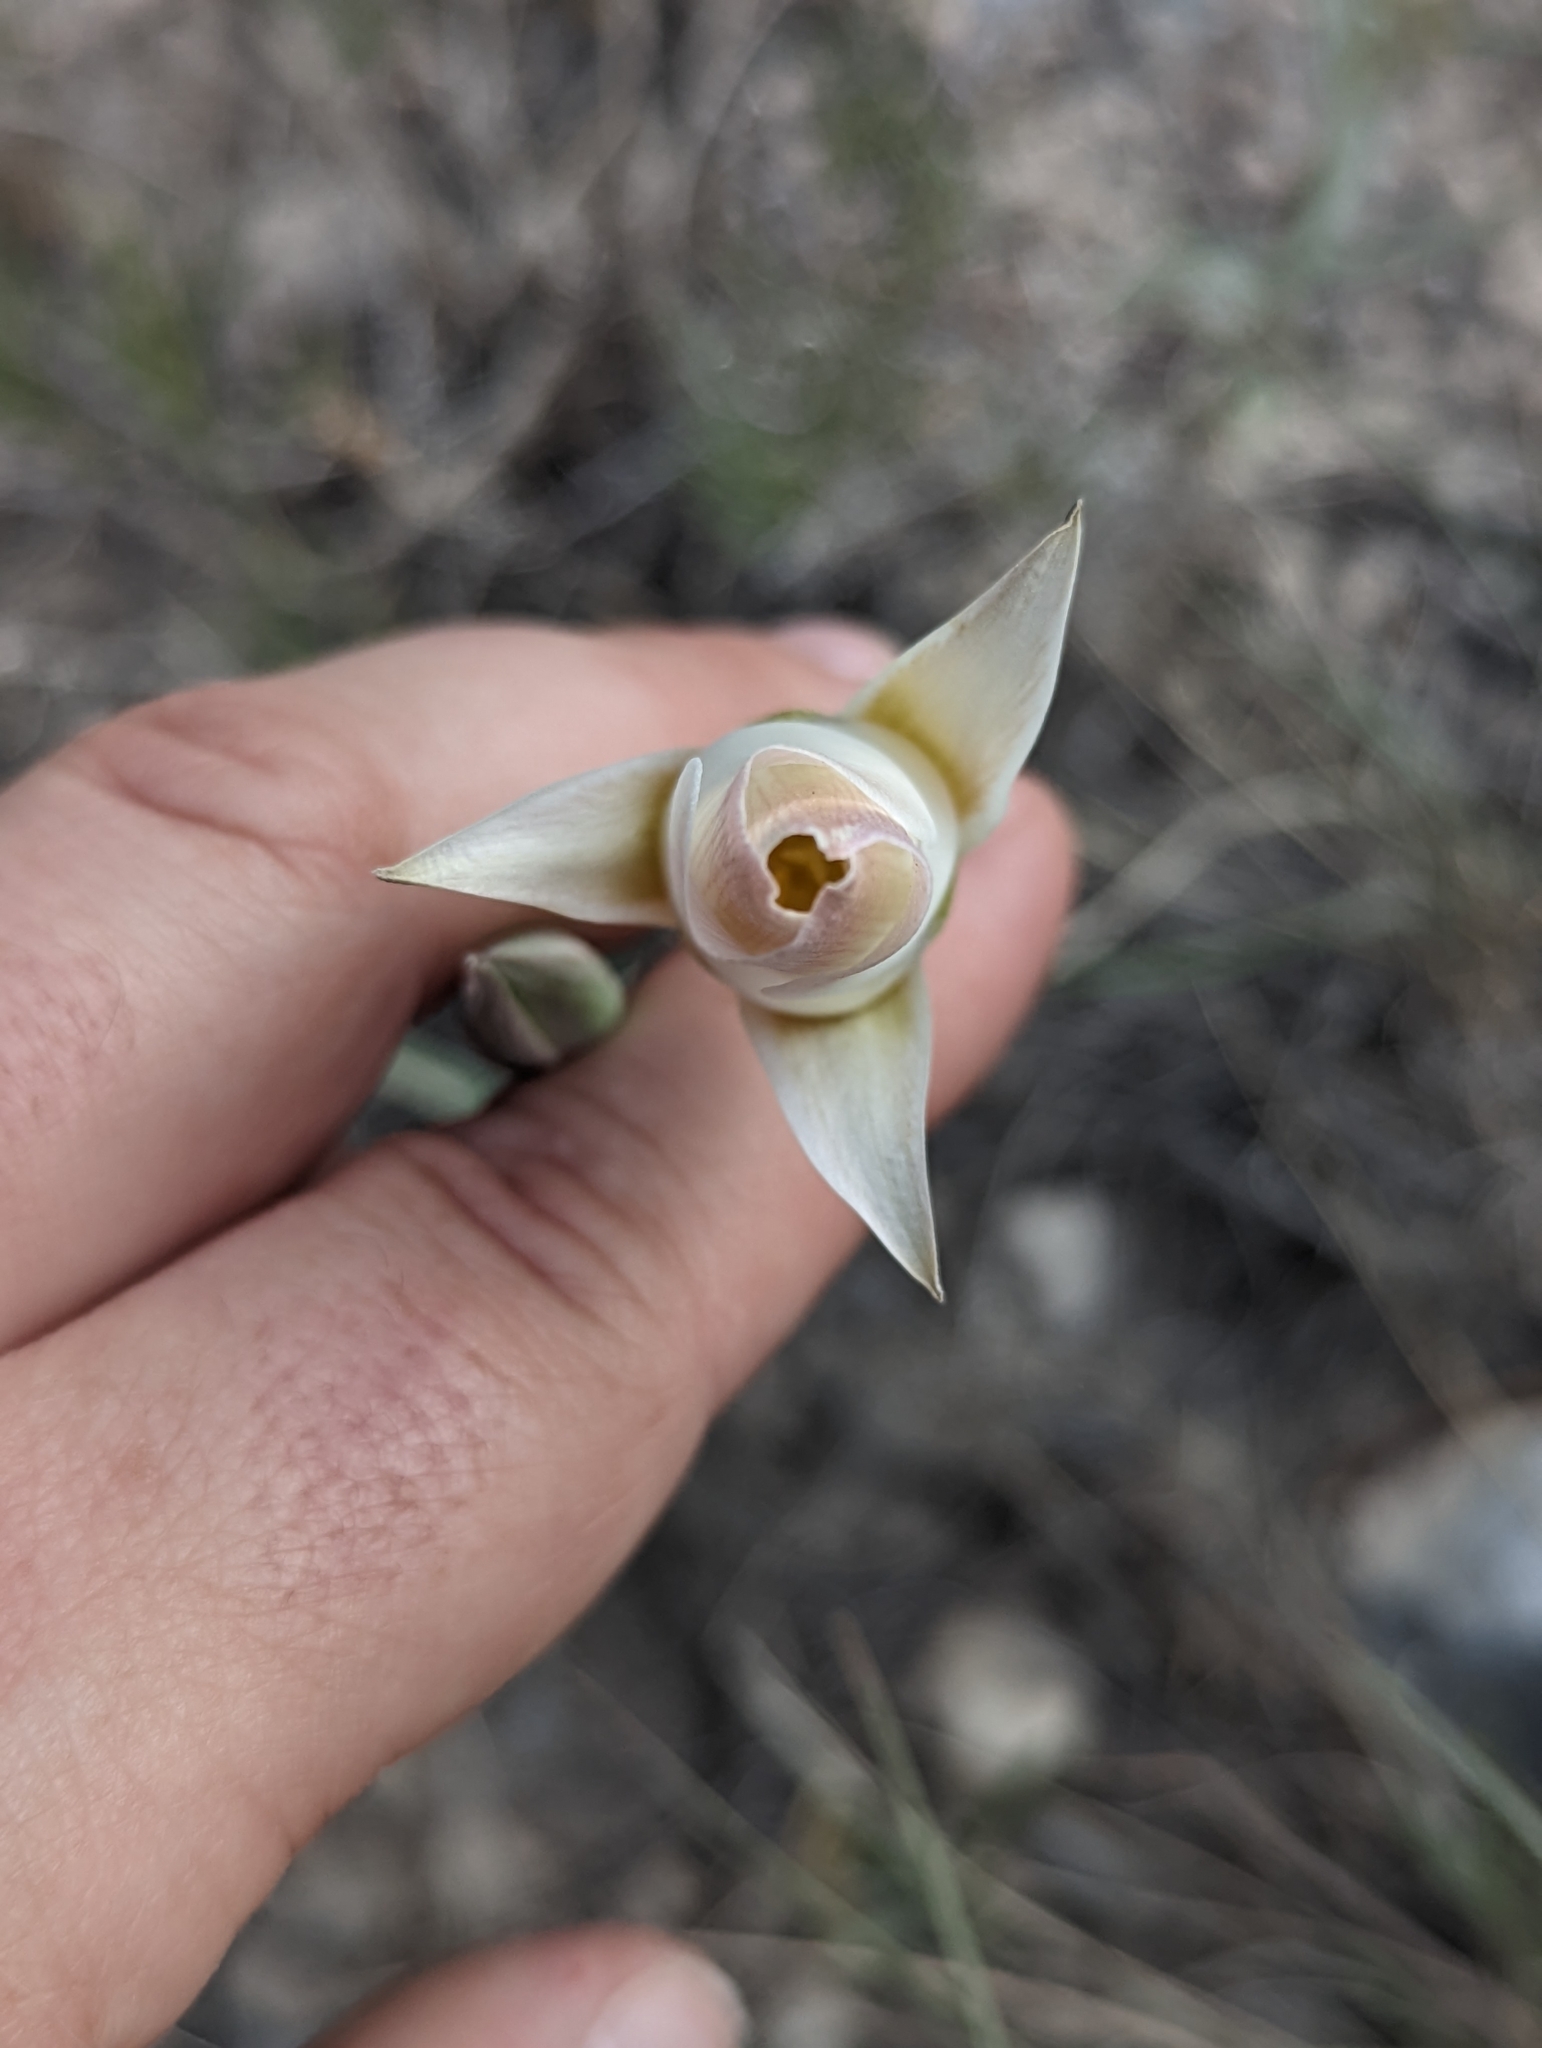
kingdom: Plantae
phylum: Tracheophyta
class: Liliopsida
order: Liliales
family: Liliaceae
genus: Calochortus
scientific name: Calochortus nuttallii
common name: Sego-lily
